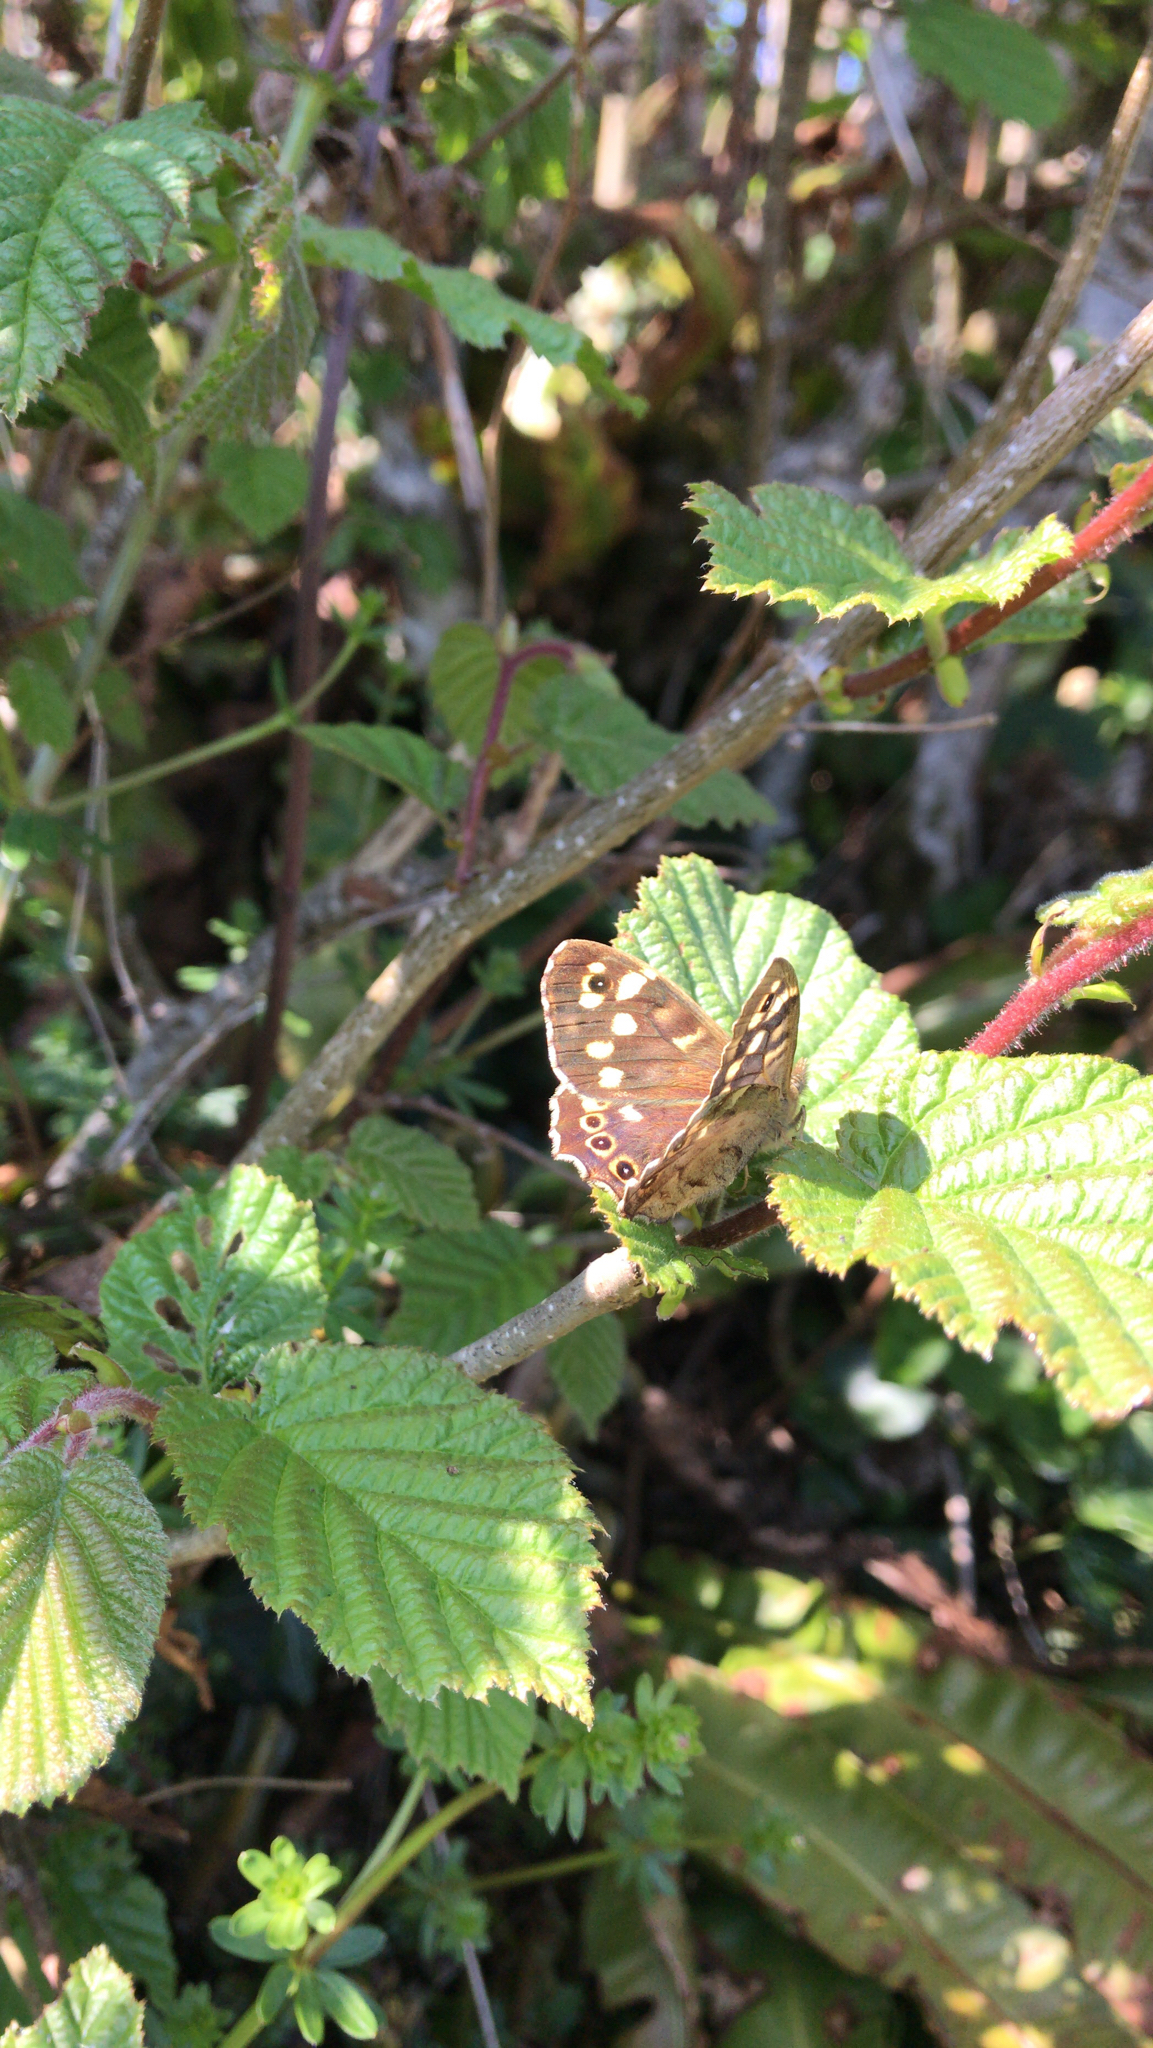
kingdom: Animalia
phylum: Arthropoda
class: Insecta
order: Lepidoptera
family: Nymphalidae
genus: Pararge
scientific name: Pararge aegeria
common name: Speckled wood
